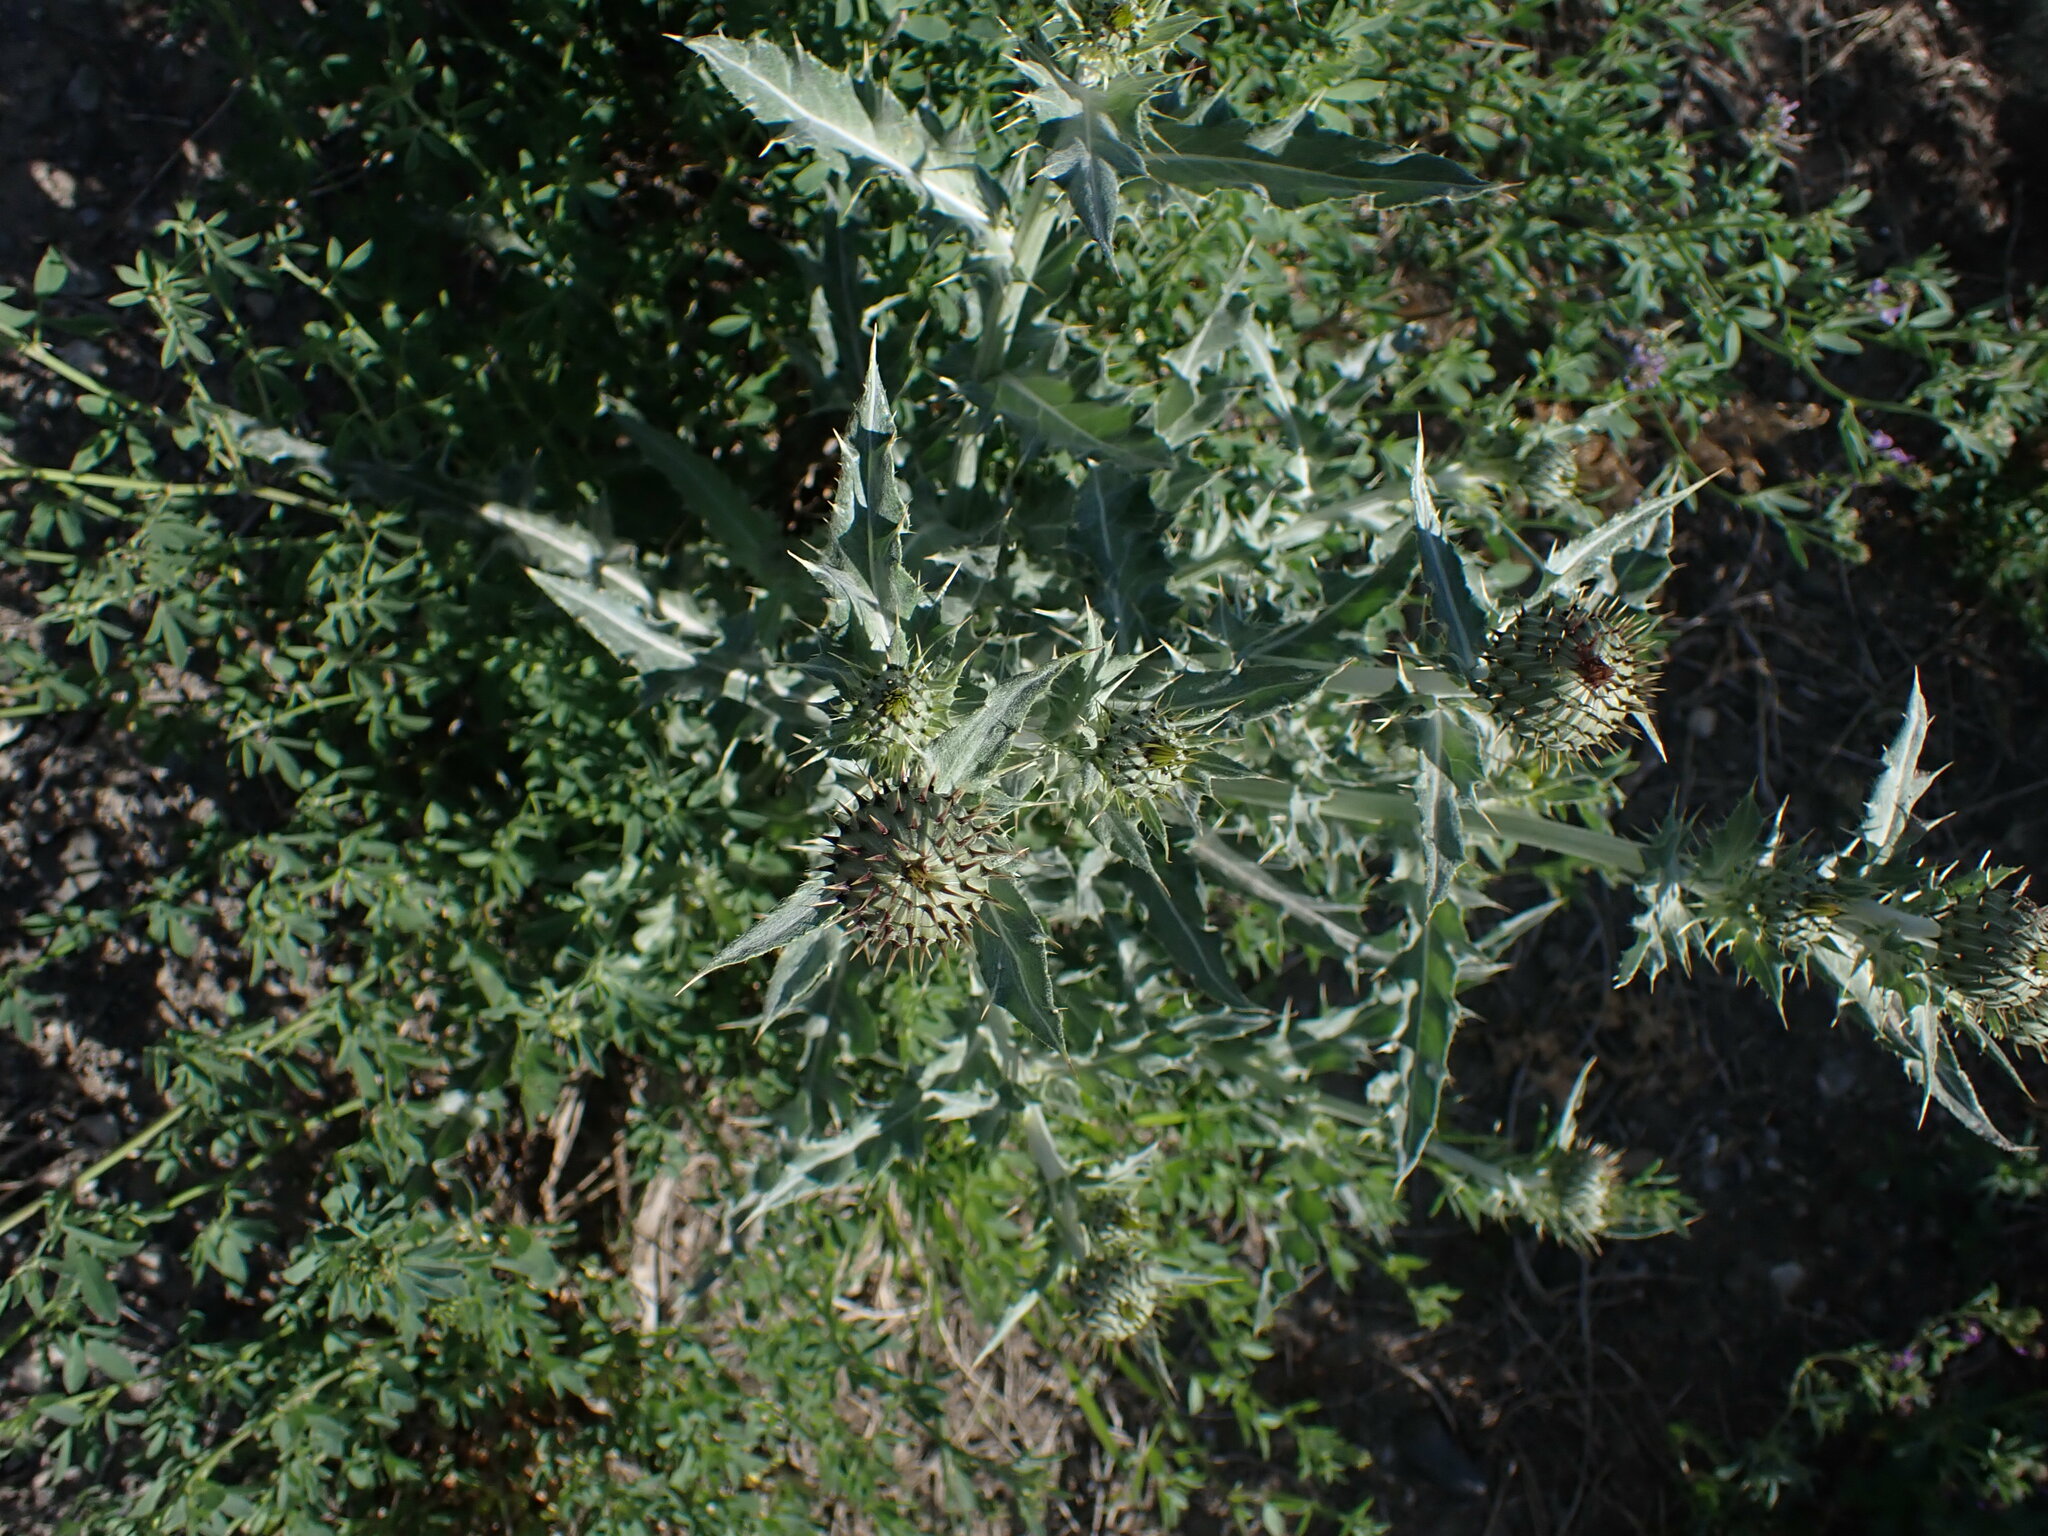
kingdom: Plantae
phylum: Tracheophyta
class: Magnoliopsida
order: Asterales
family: Asteraceae
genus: Cirsium
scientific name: Cirsium undulatum
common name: Pasture thistle
